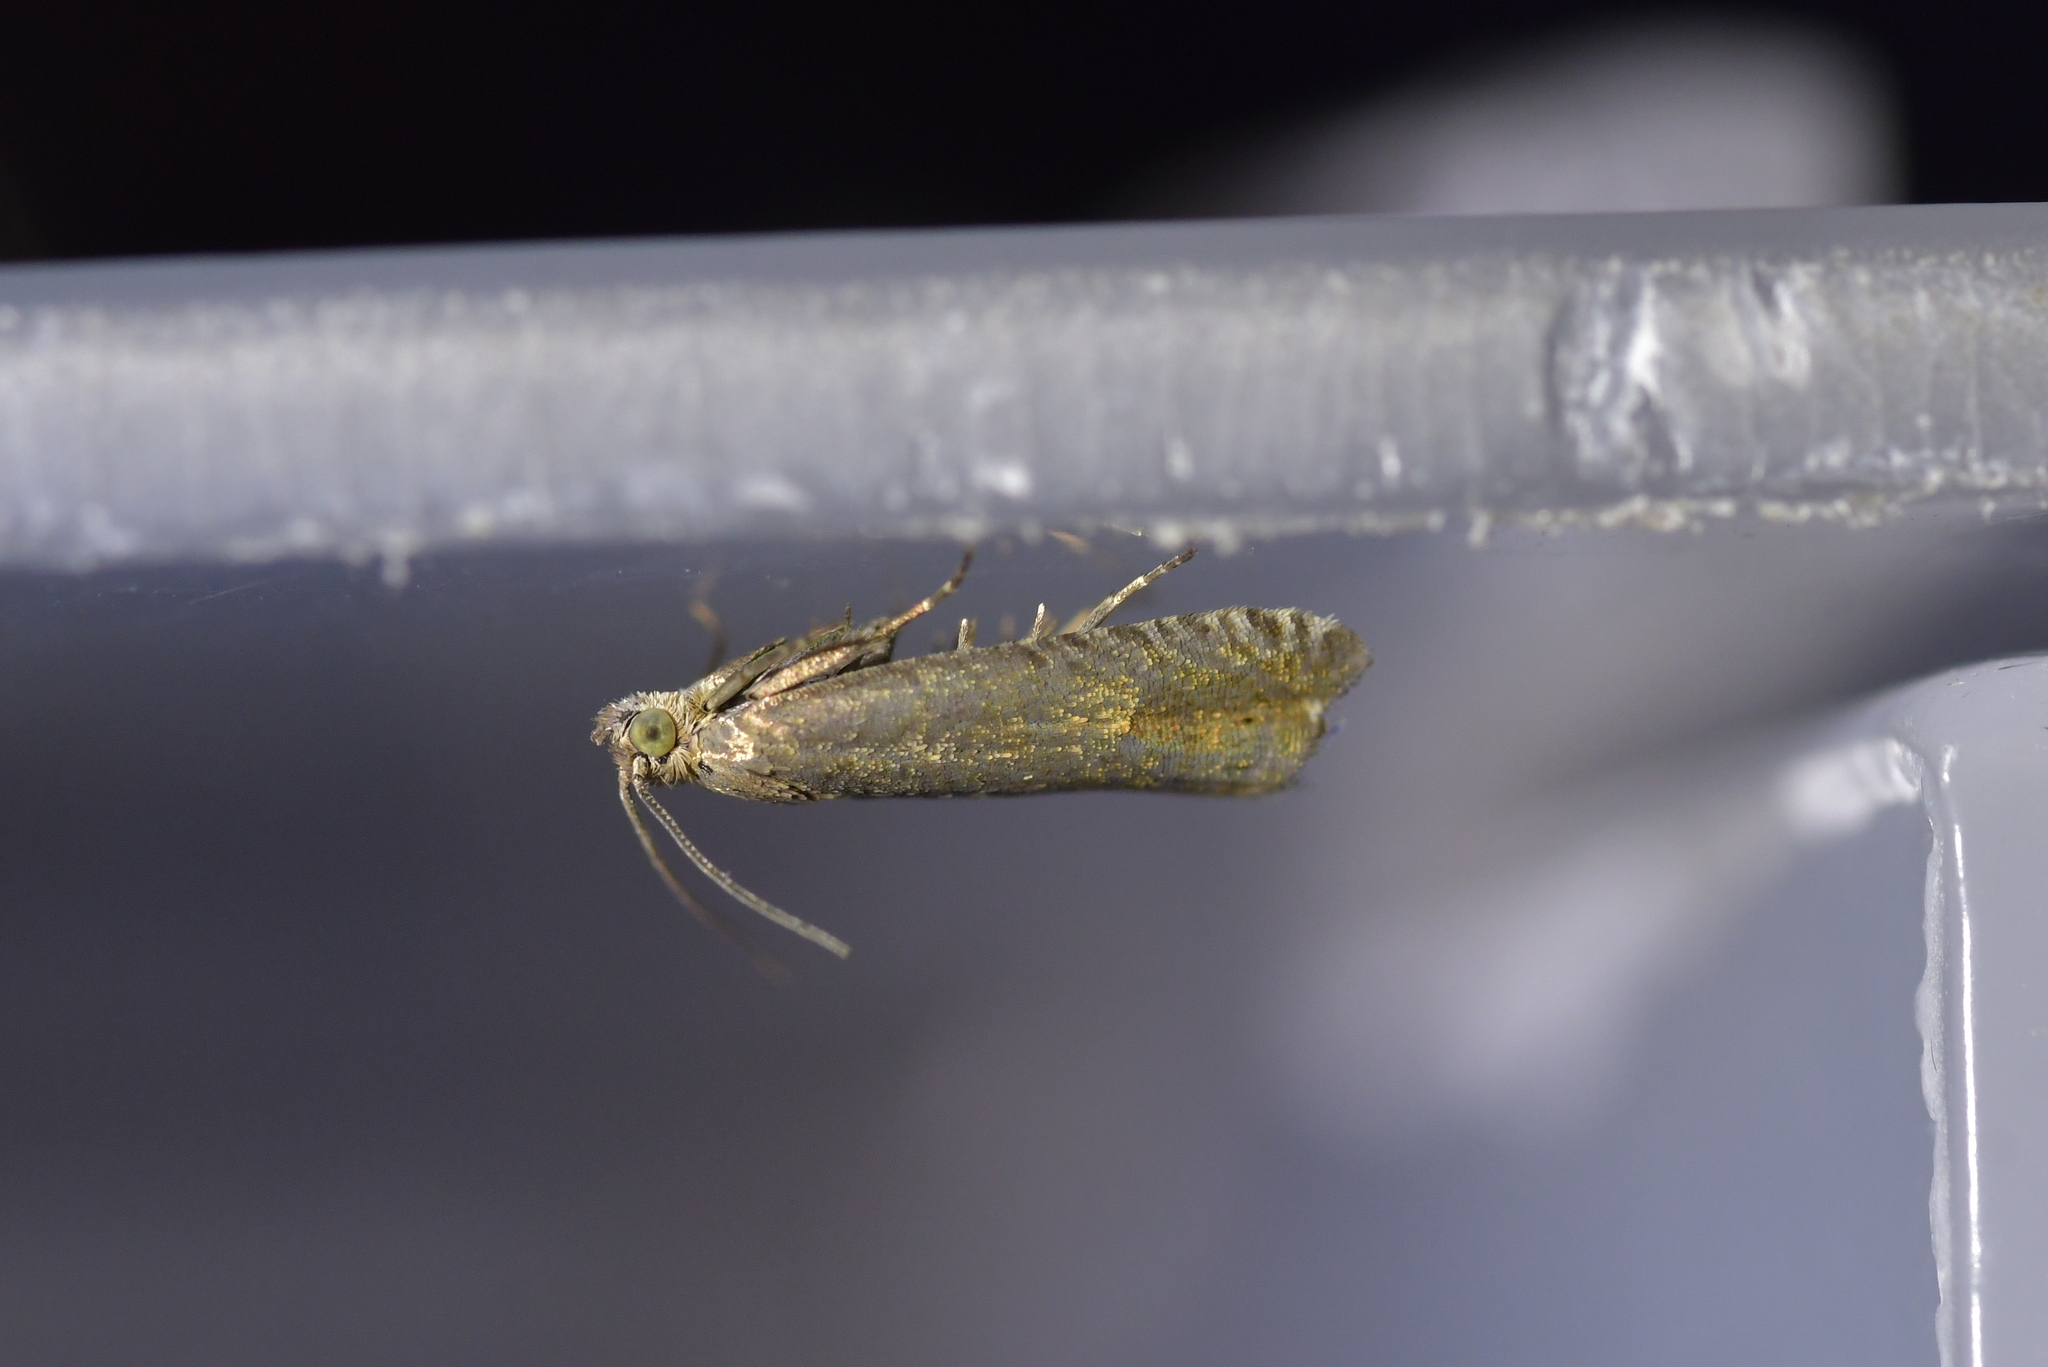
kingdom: Animalia
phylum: Arthropoda
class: Insecta
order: Lepidoptera
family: Tortricidae
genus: Cydia
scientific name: Cydia succedana
